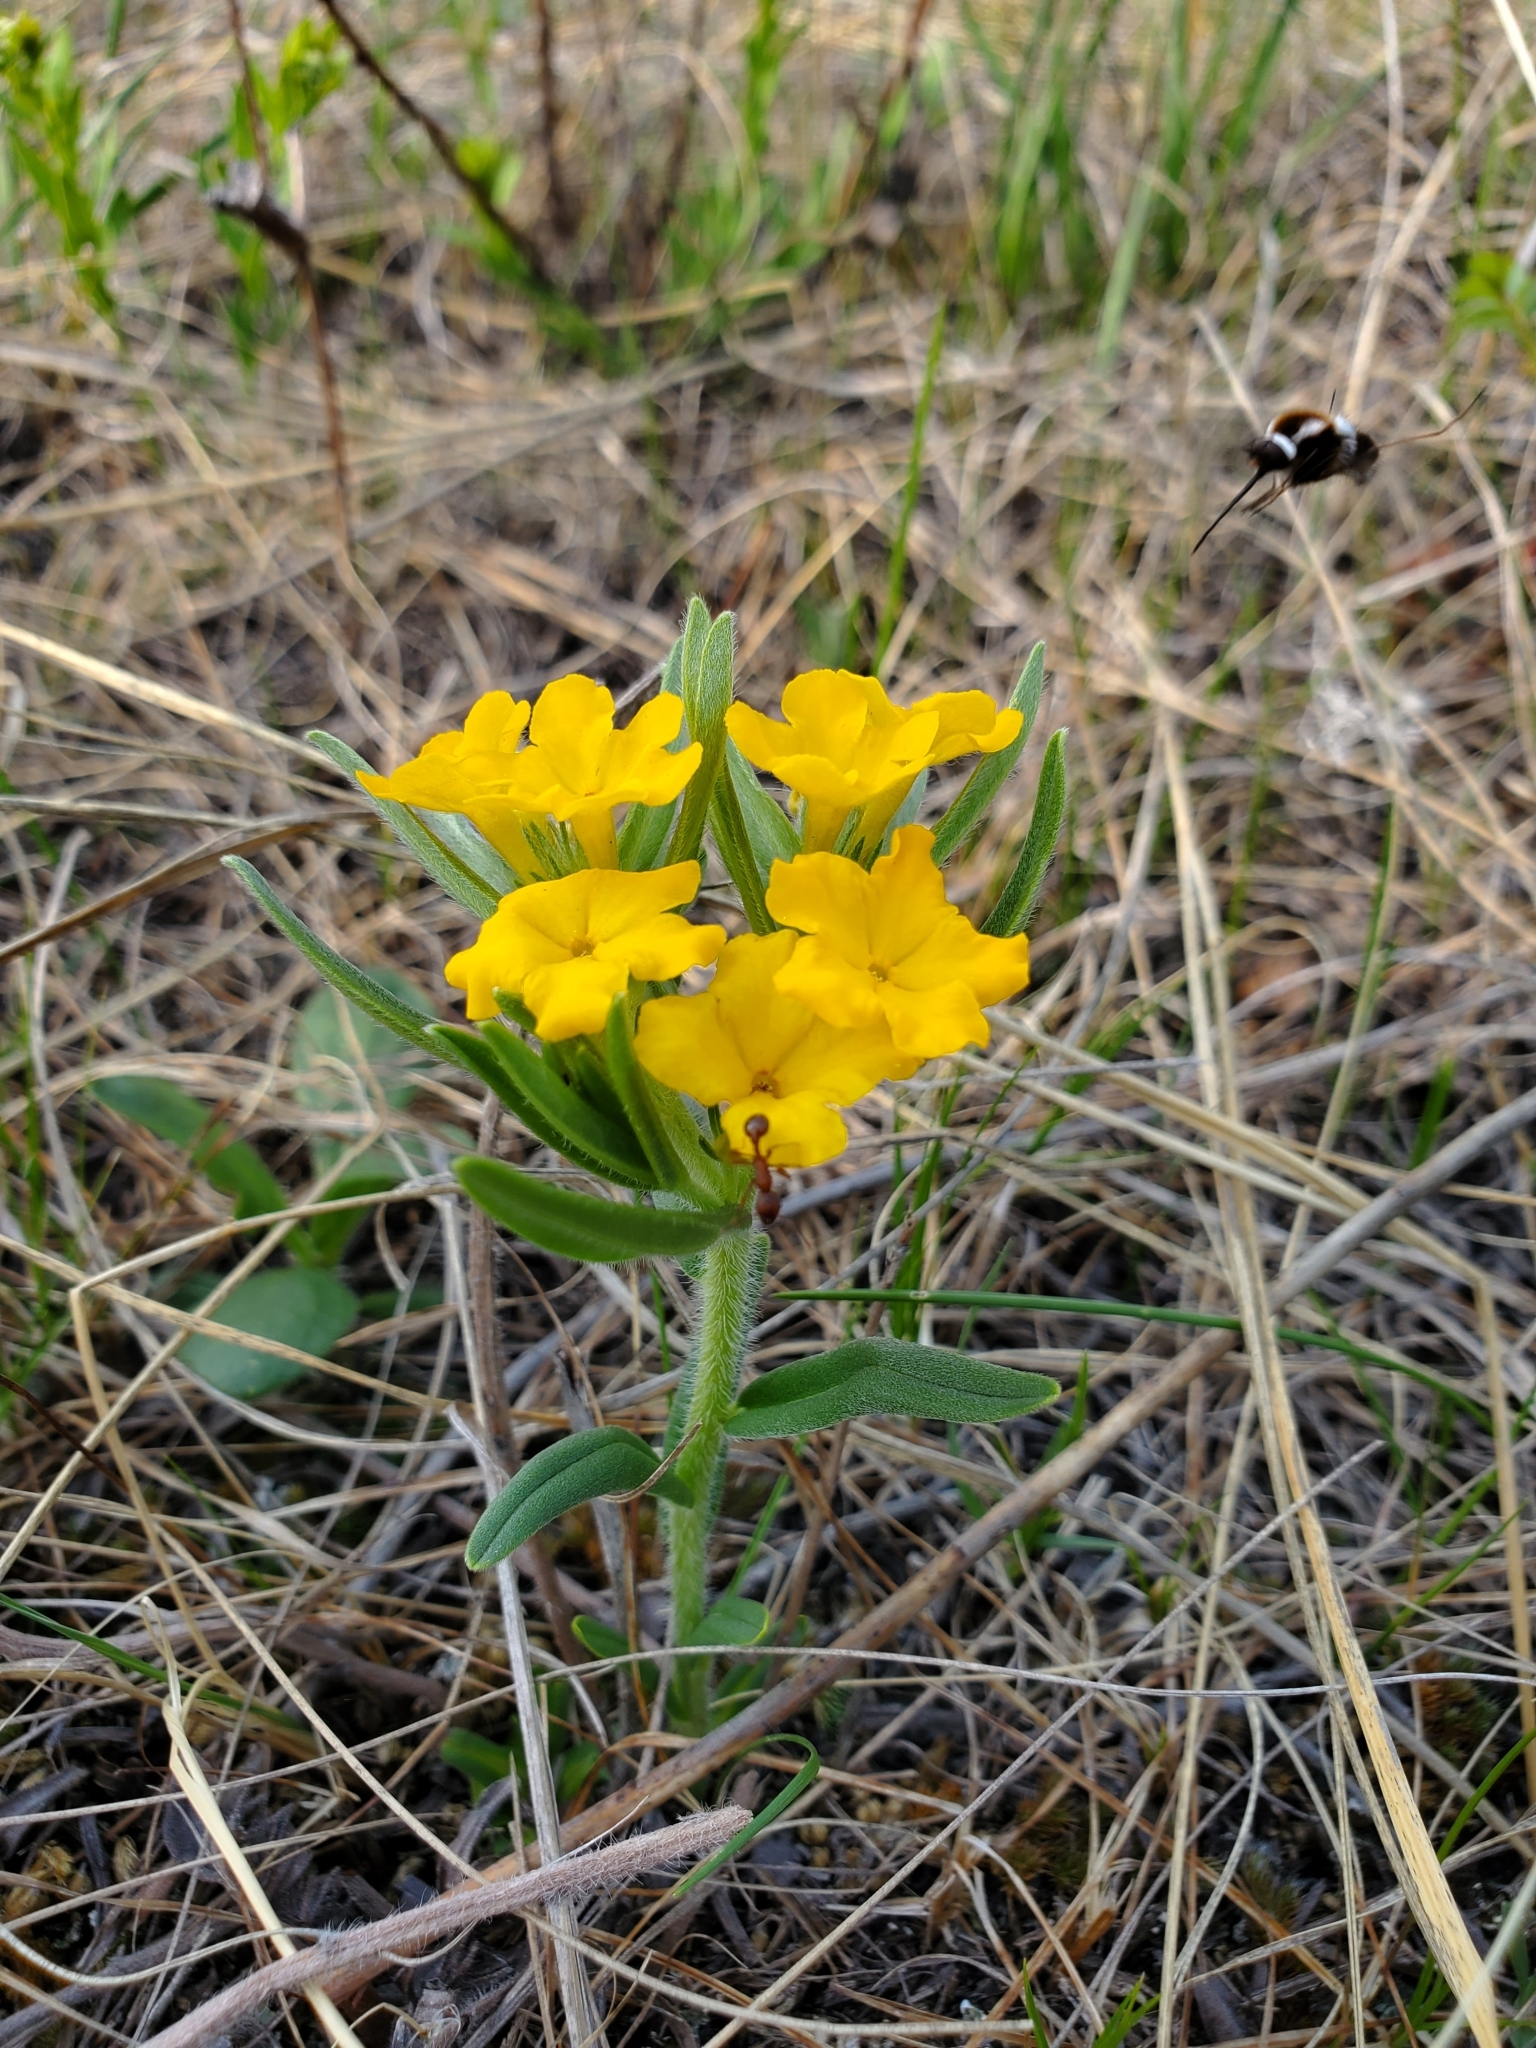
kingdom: Plantae
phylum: Tracheophyta
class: Magnoliopsida
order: Boraginales
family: Boraginaceae
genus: Lithospermum
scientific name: Lithospermum canescens
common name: Hoary puccoon
